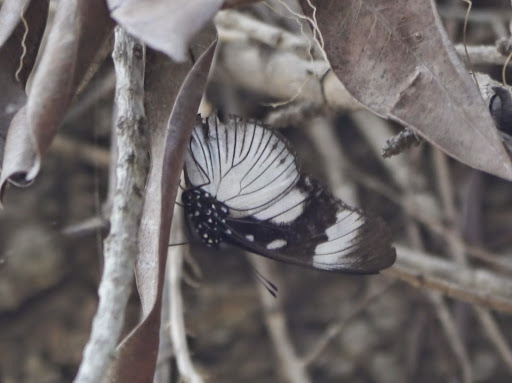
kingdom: Animalia
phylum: Arthropoda
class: Insecta
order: Lepidoptera
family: Nymphalidae
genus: Hypolimnas
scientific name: Hypolimnas dubius
